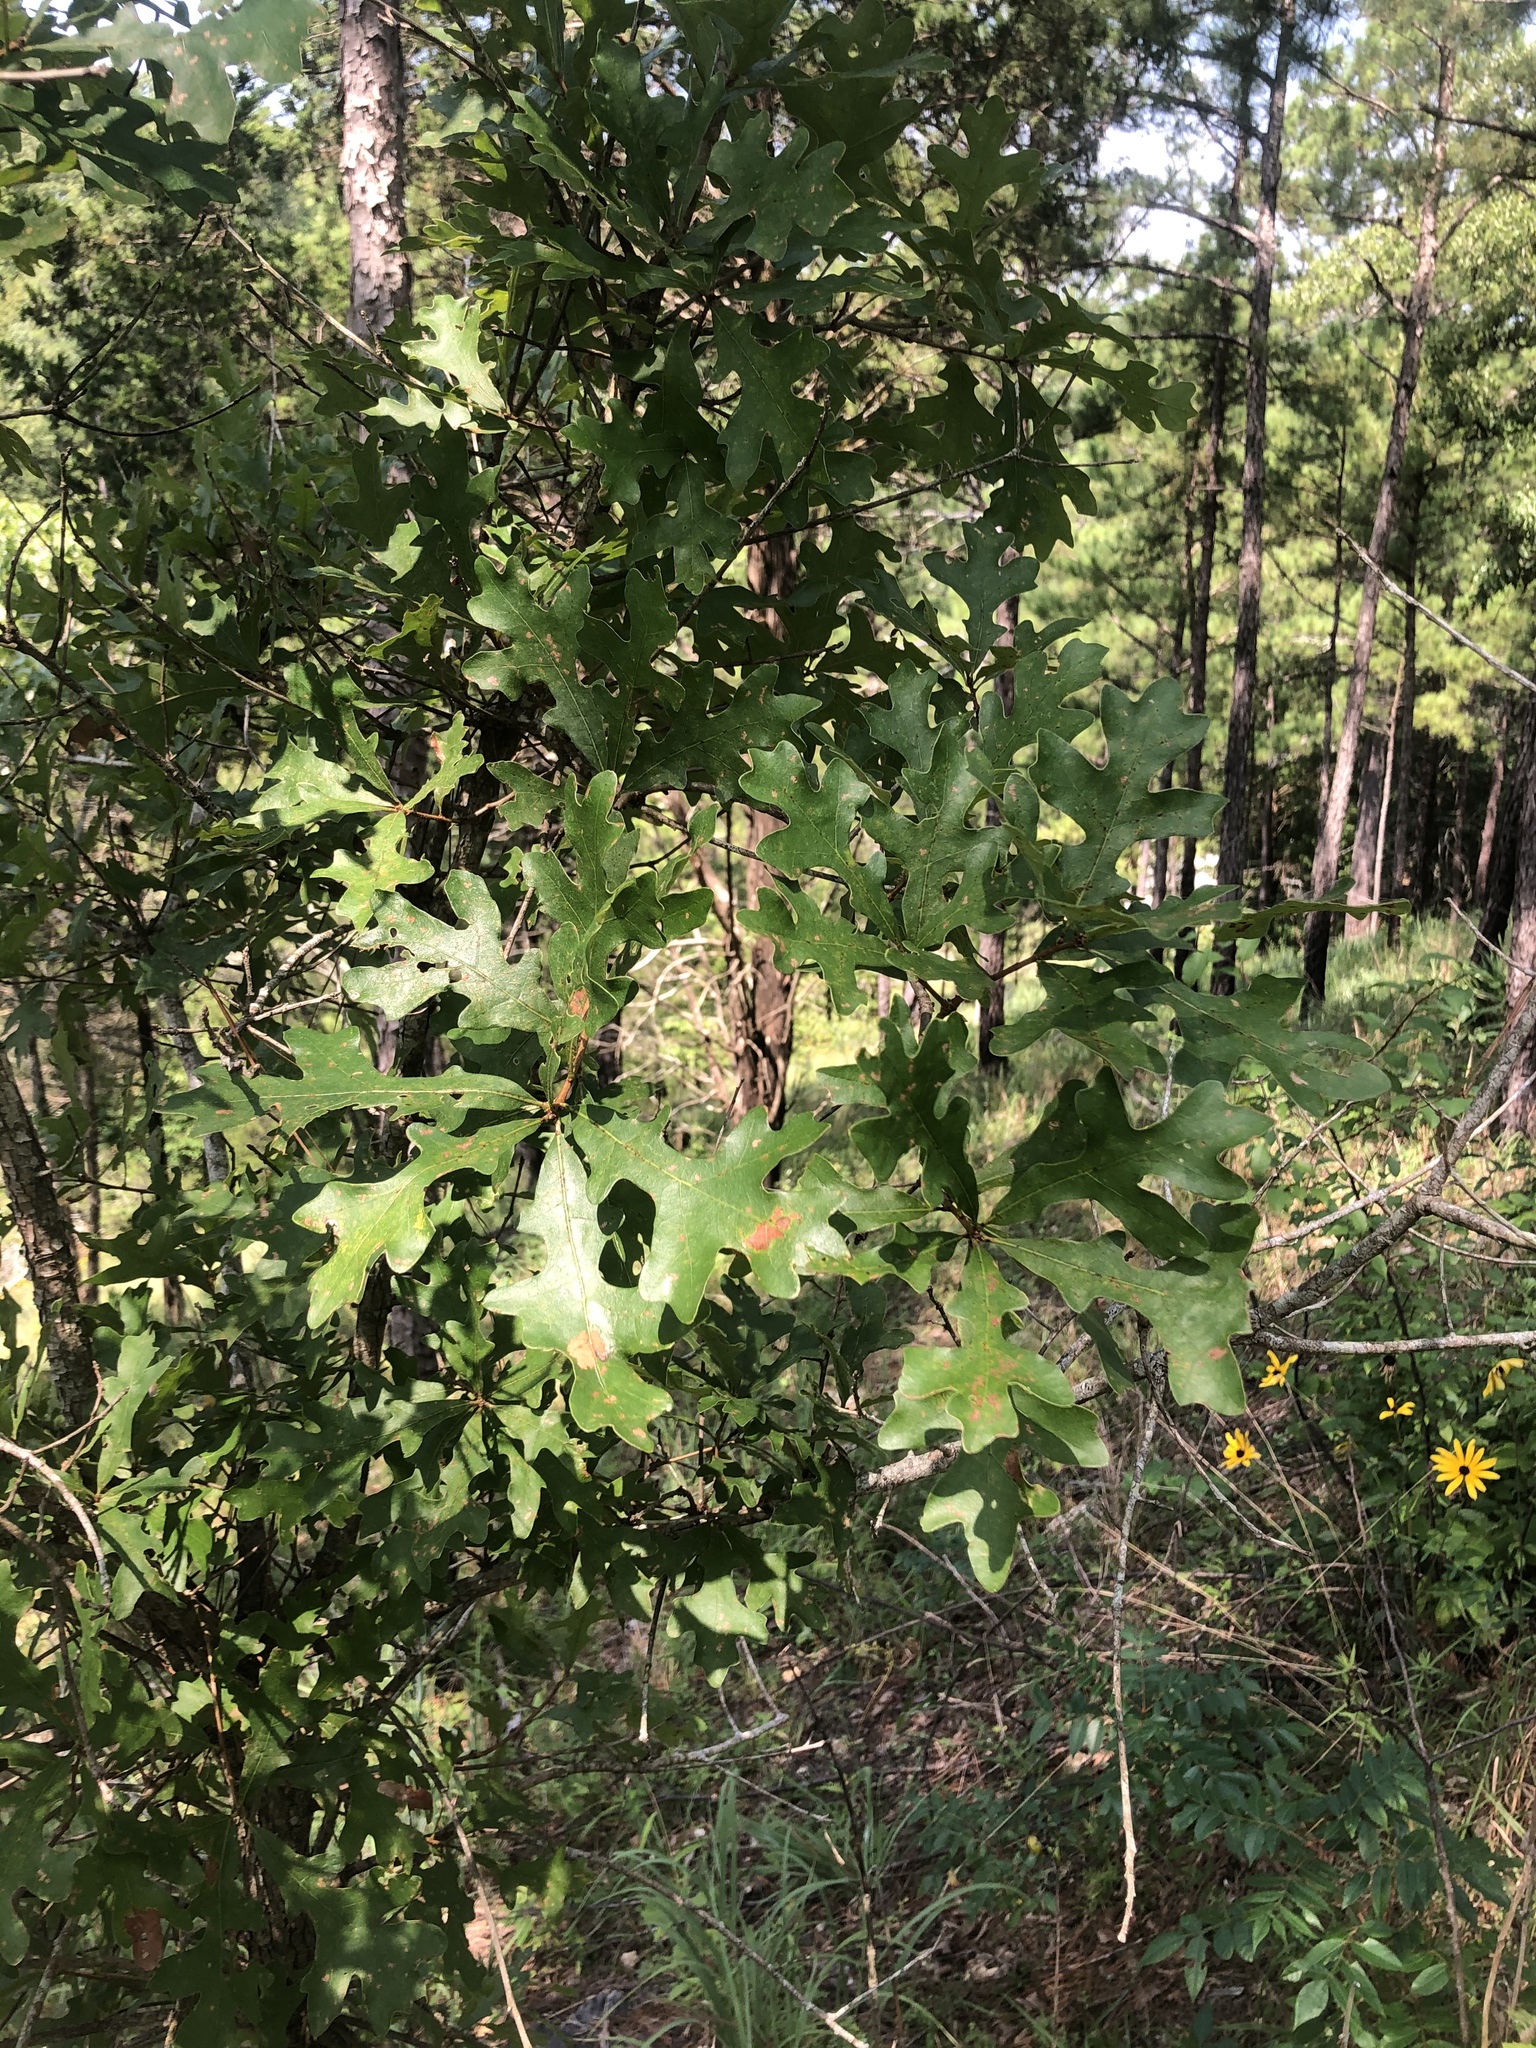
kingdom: Plantae
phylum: Tracheophyta
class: Magnoliopsida
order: Fagales
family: Fagaceae
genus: Quercus
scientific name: Quercus margaretiae
